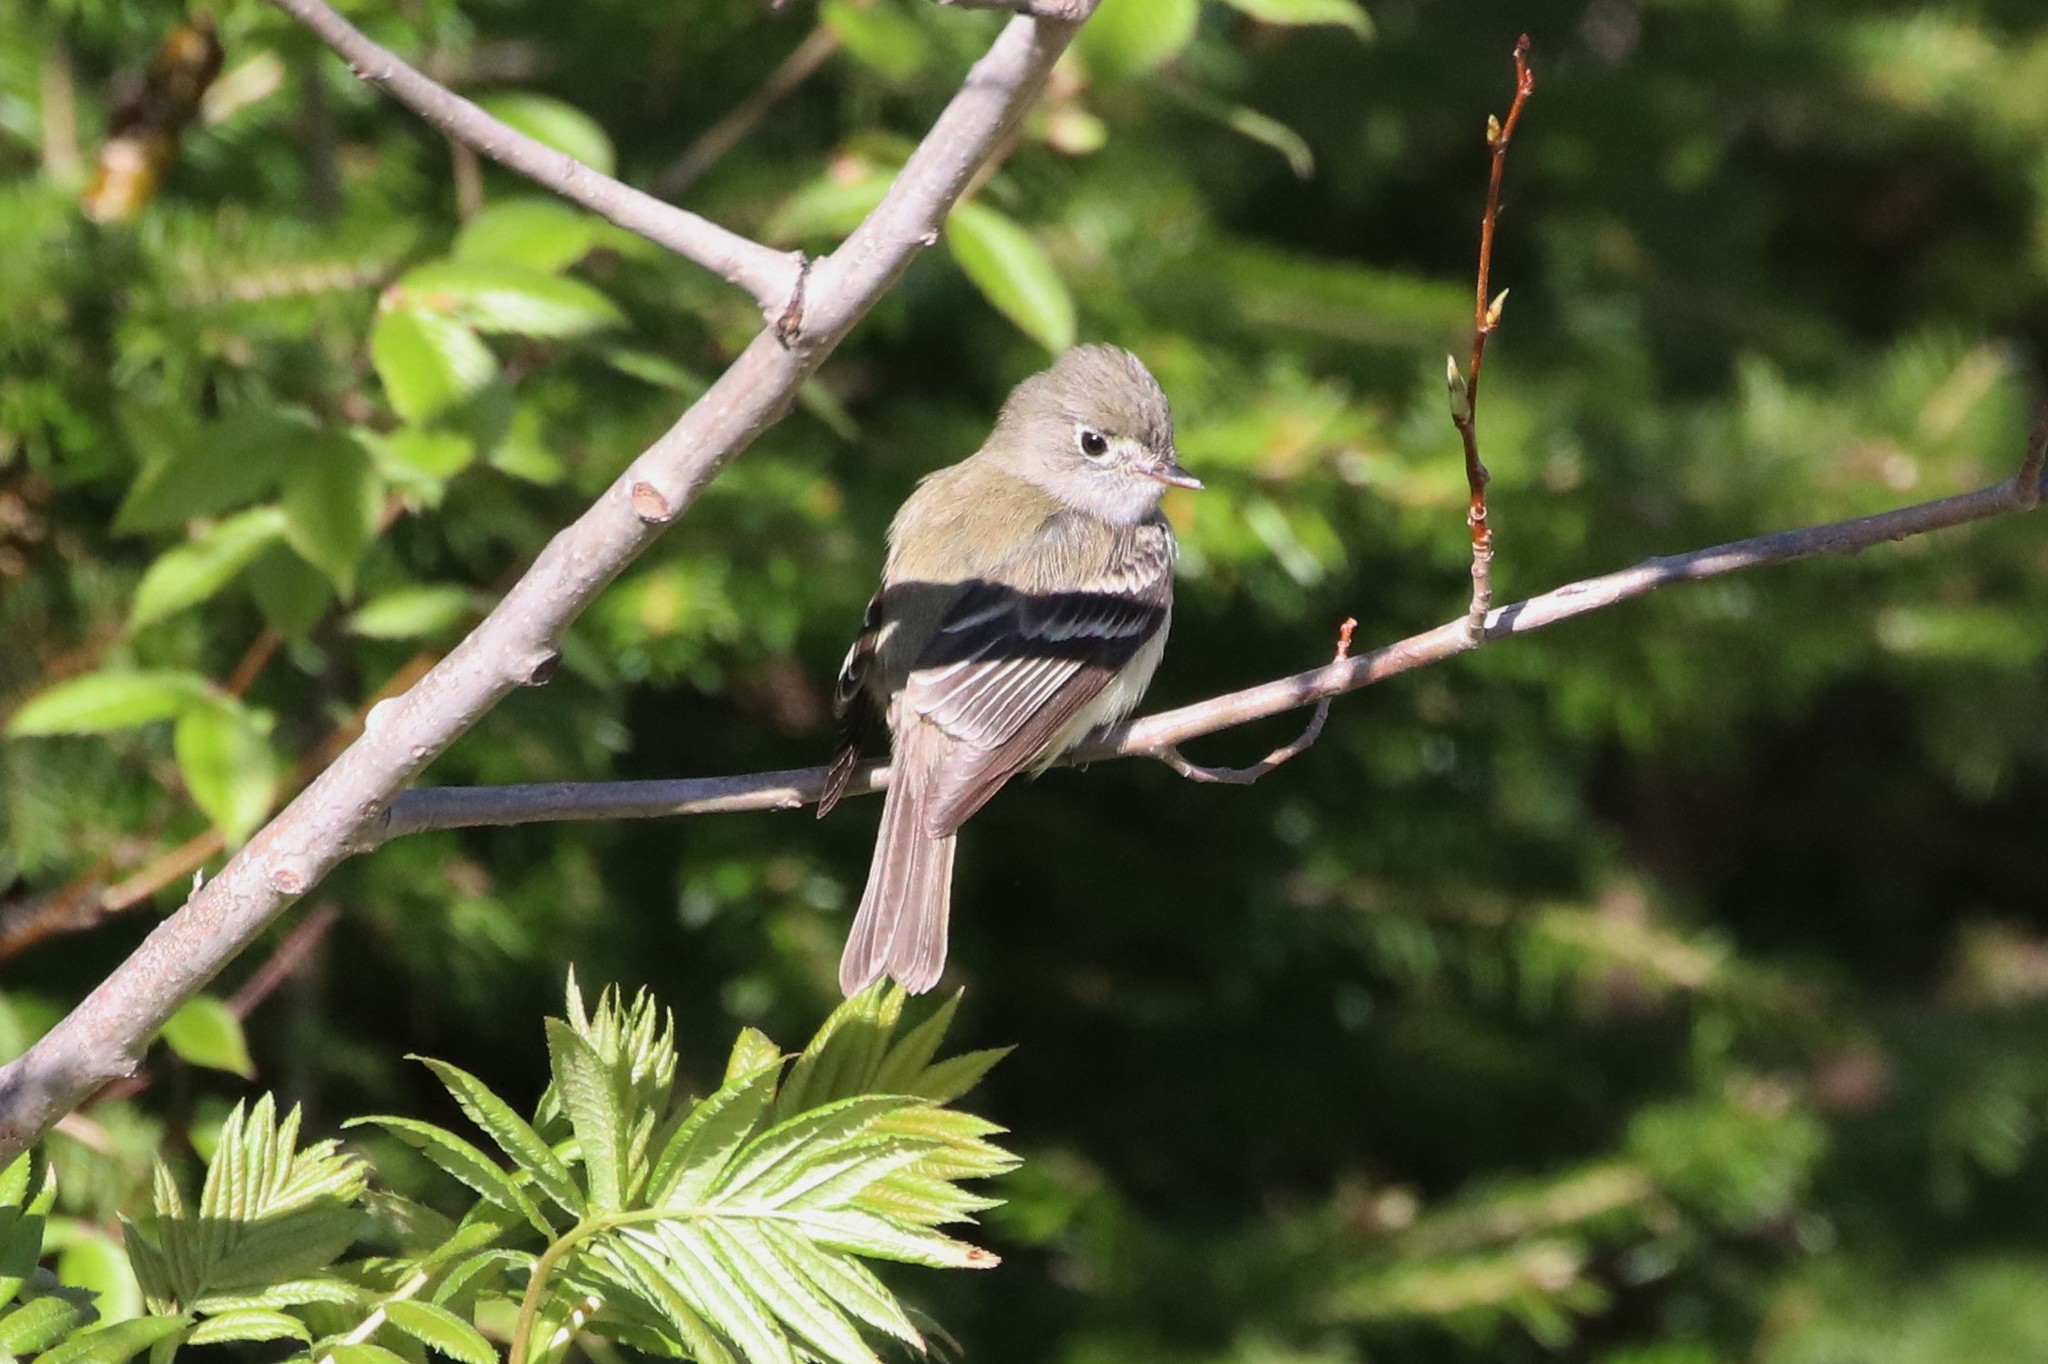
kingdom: Animalia
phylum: Chordata
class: Aves
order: Passeriformes
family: Tyrannidae
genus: Empidonax
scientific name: Empidonax minimus
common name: Least flycatcher
